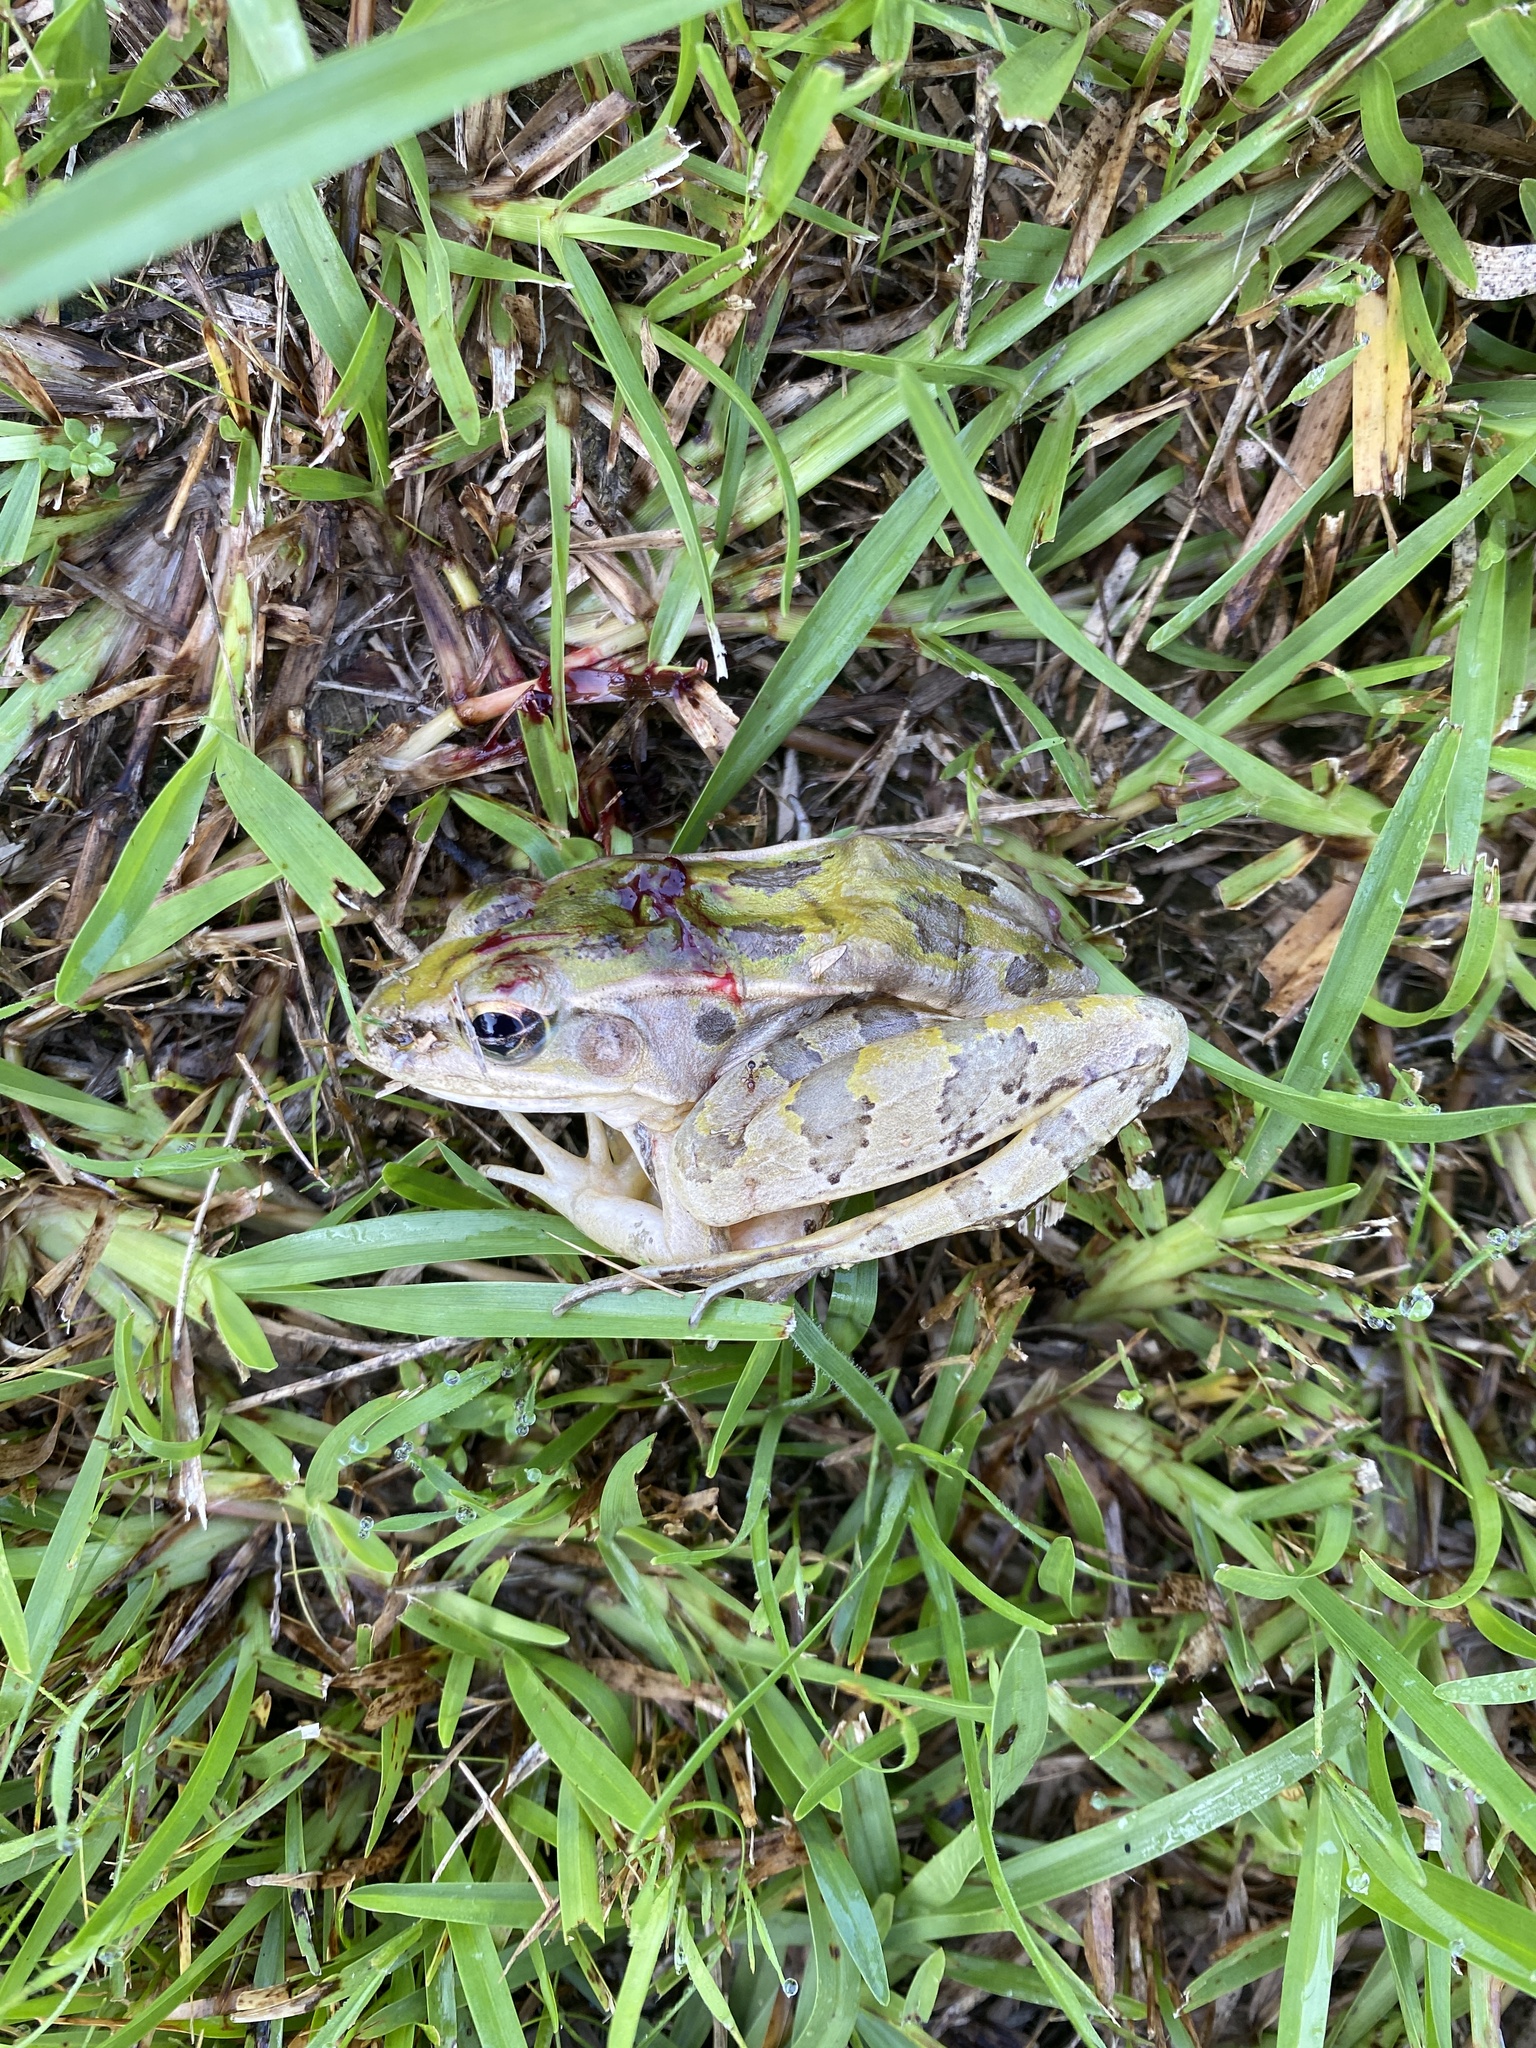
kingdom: Animalia
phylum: Chordata
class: Amphibia
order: Anura
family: Ranidae
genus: Lithobates
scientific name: Lithobates sphenocephalus
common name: Southern leopard frog
